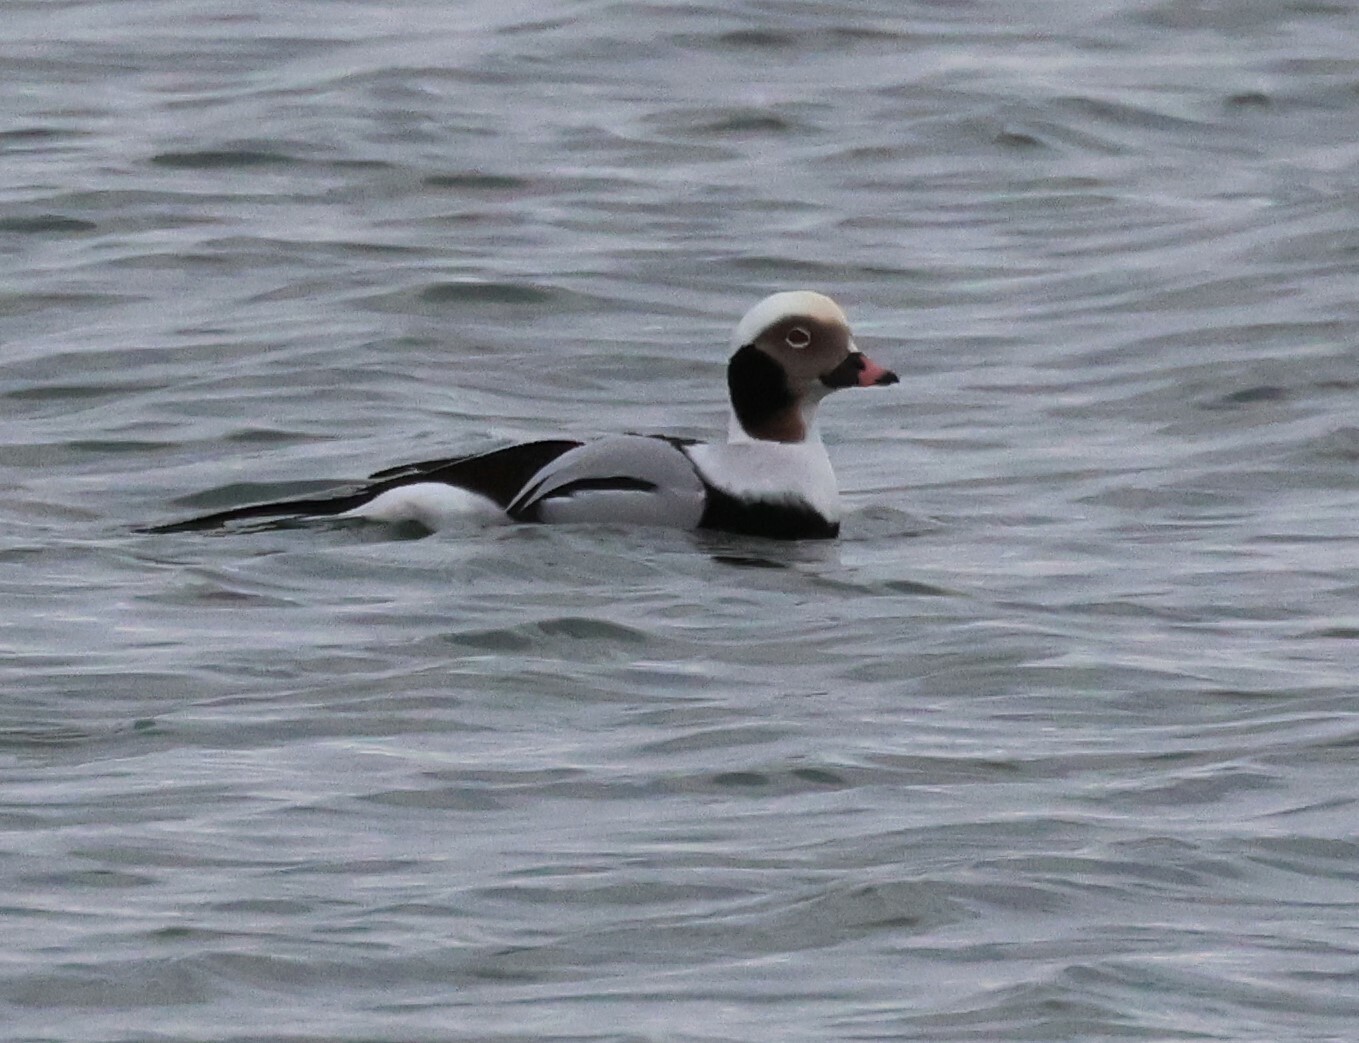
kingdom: Animalia
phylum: Chordata
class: Aves
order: Anseriformes
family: Anatidae
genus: Clangula
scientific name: Clangula hyemalis
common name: Long-tailed duck
